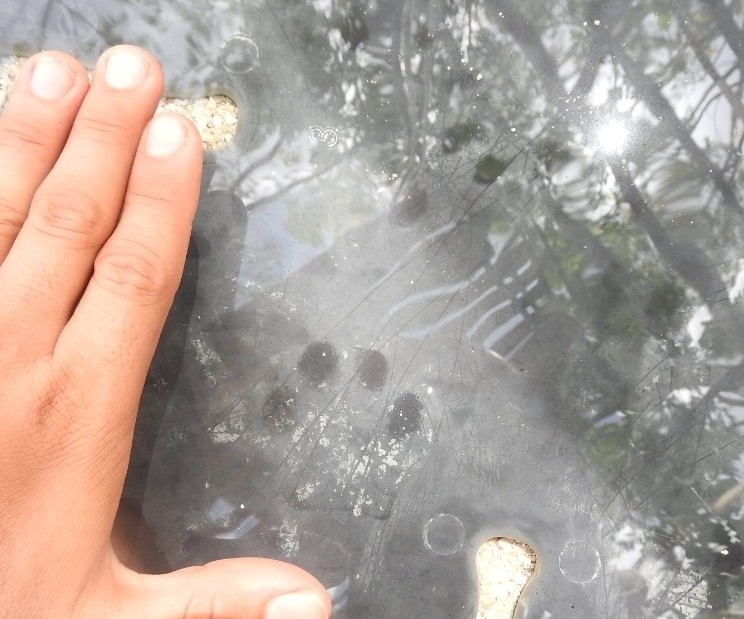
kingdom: Animalia
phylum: Chordata
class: Mammalia
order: Carnivora
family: Felidae
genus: Leopardus
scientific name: Leopardus wiedii
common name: Margay
